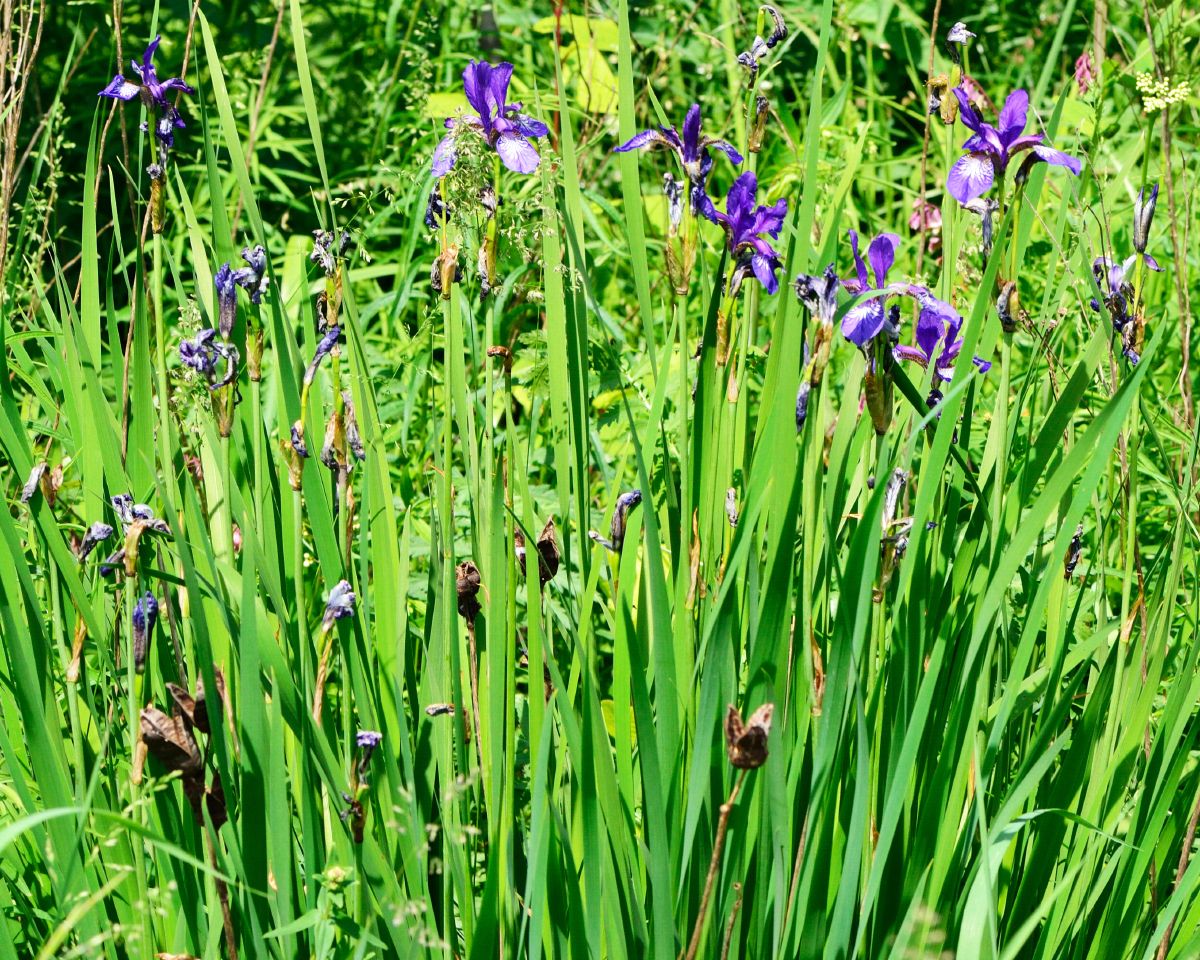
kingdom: Plantae
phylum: Tracheophyta
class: Liliopsida
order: Asparagales
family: Iridaceae
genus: Iris
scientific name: Iris sibirica
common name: Siberian iris
